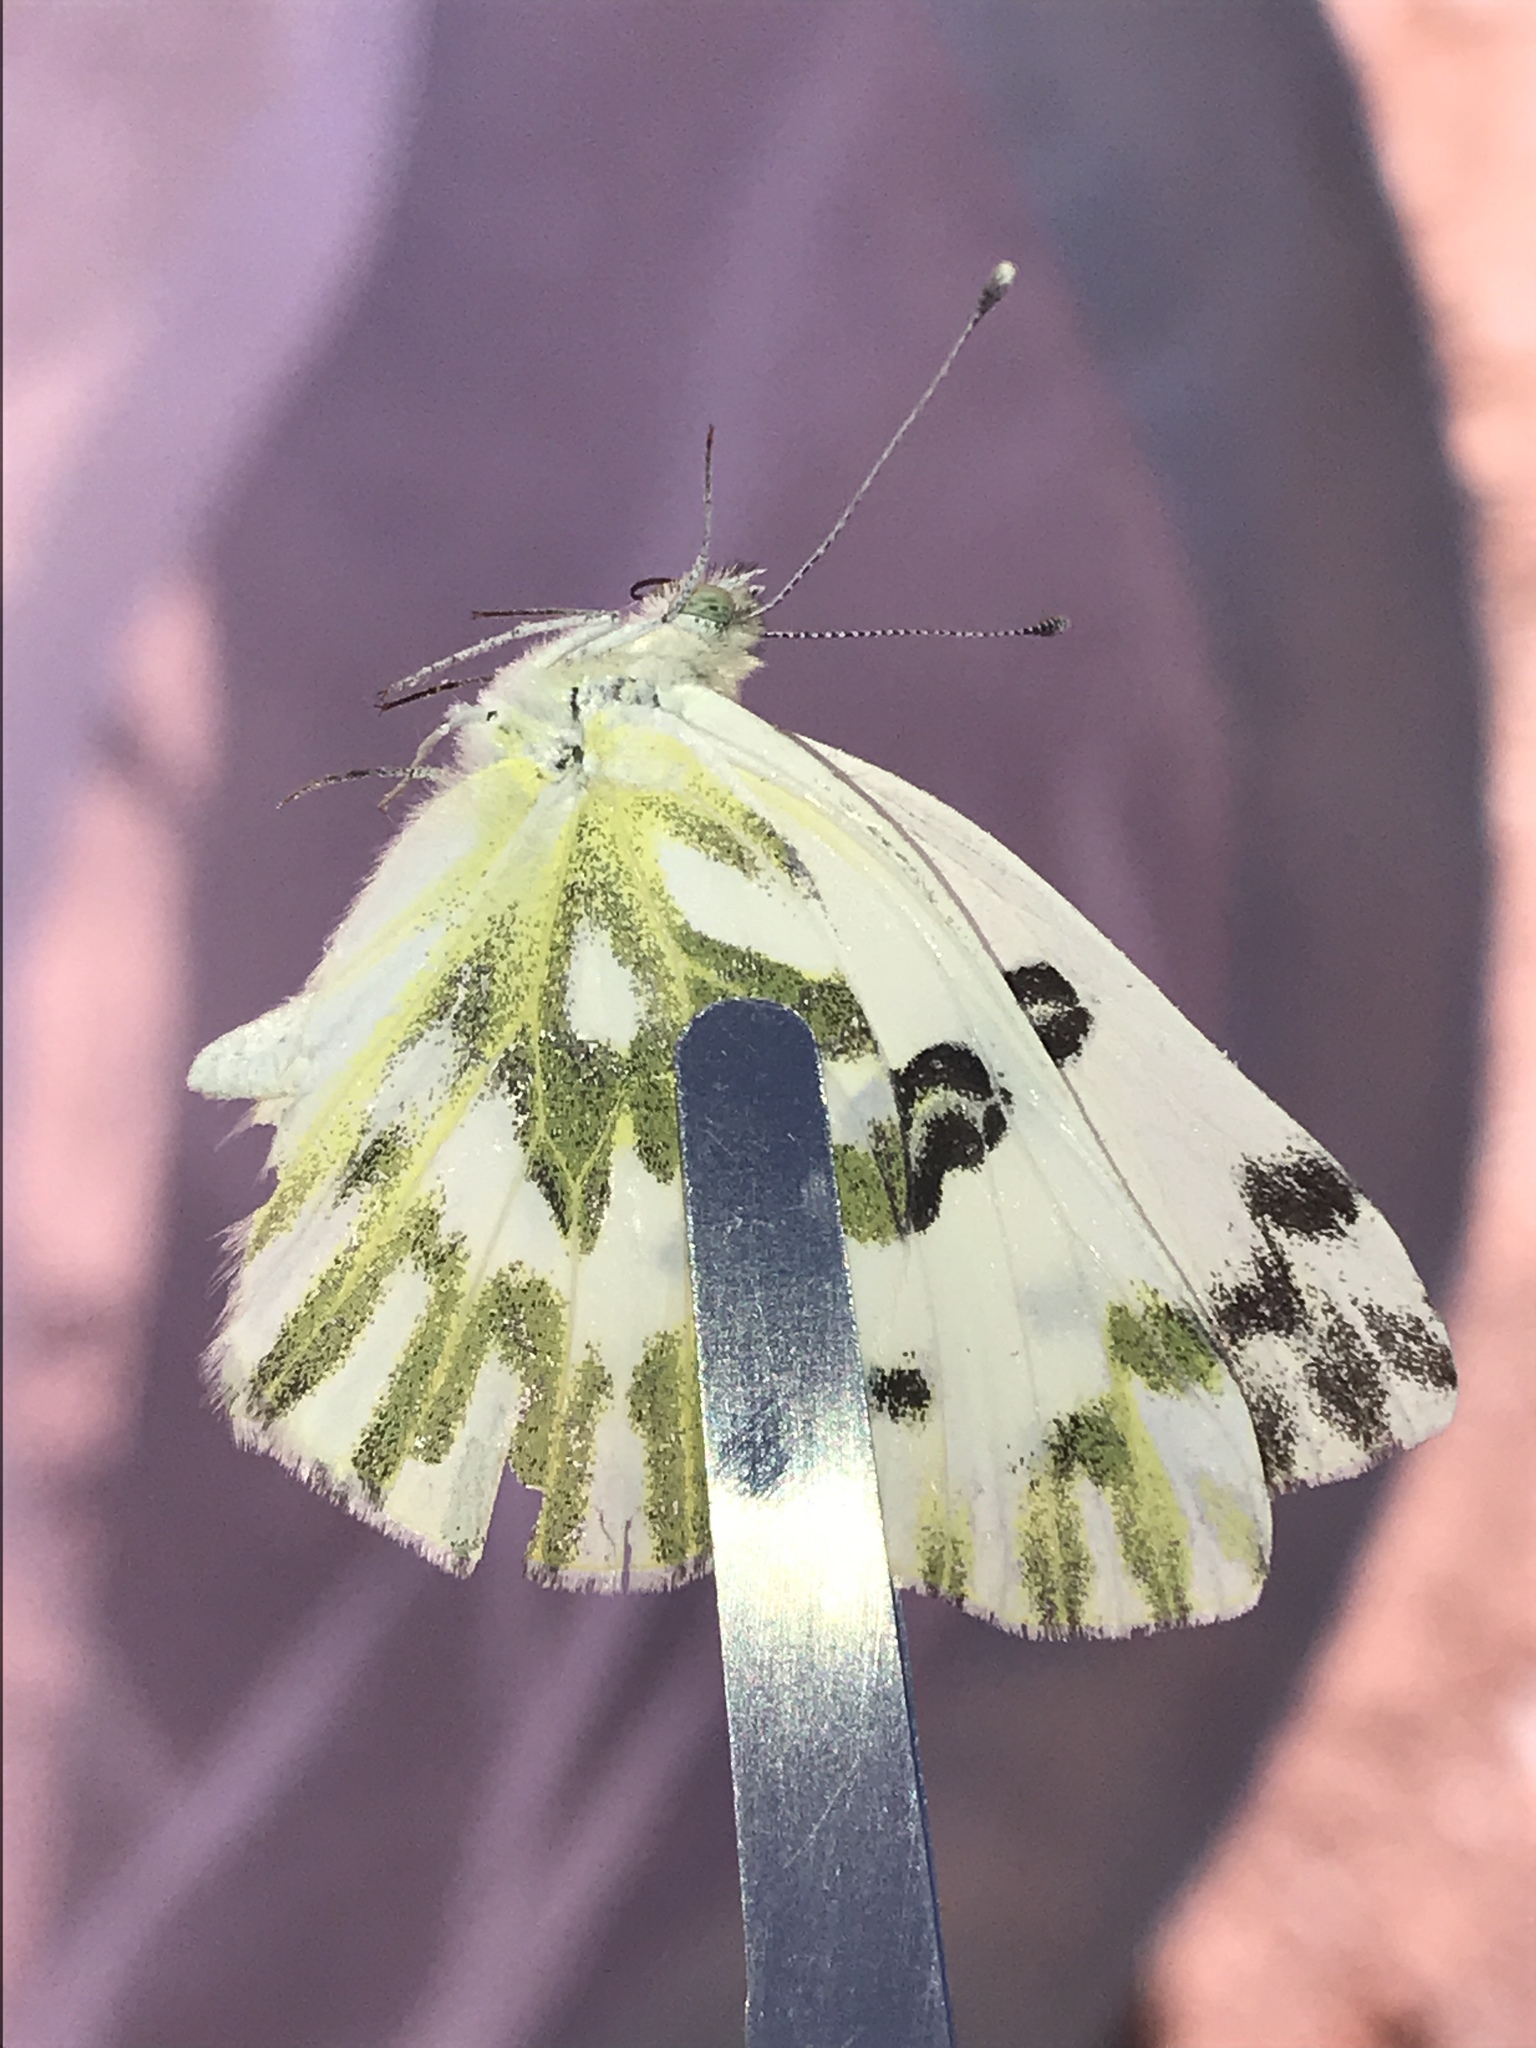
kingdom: Animalia
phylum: Arthropoda
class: Insecta
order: Lepidoptera
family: Pieridae
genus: Pontia
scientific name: Pontia beckerii
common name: Becker's white
